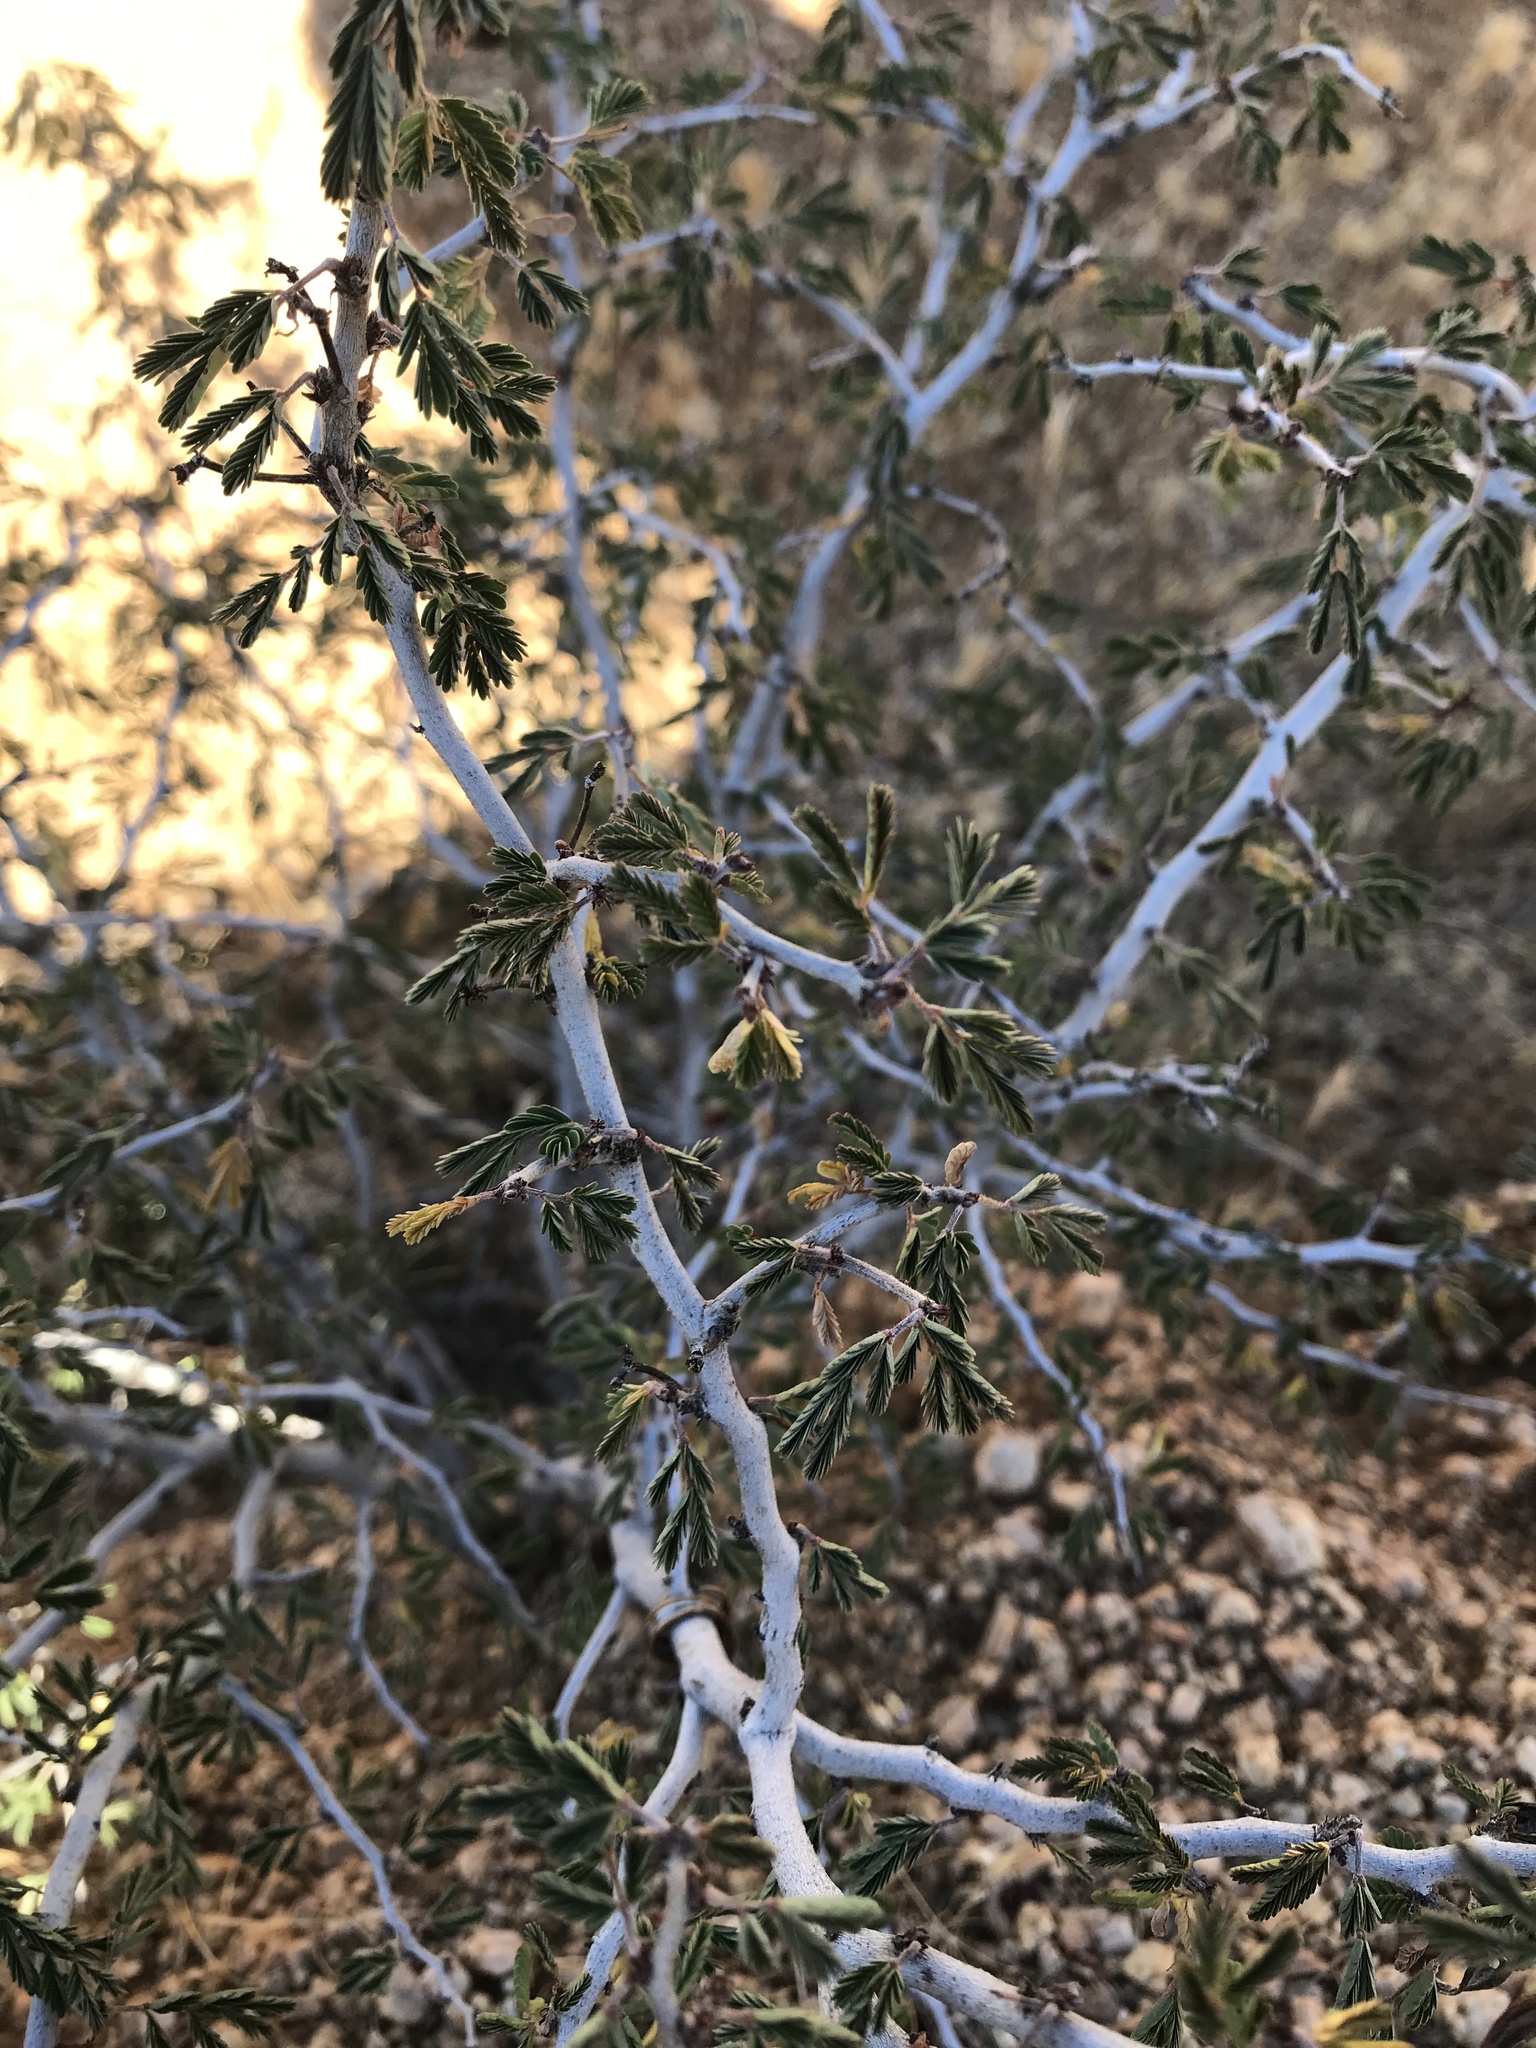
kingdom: Plantae
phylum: Tracheophyta
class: Magnoliopsida
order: Fabales
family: Fabaceae
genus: Calliandra
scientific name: Calliandra eriophylla
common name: Fairy-duster
